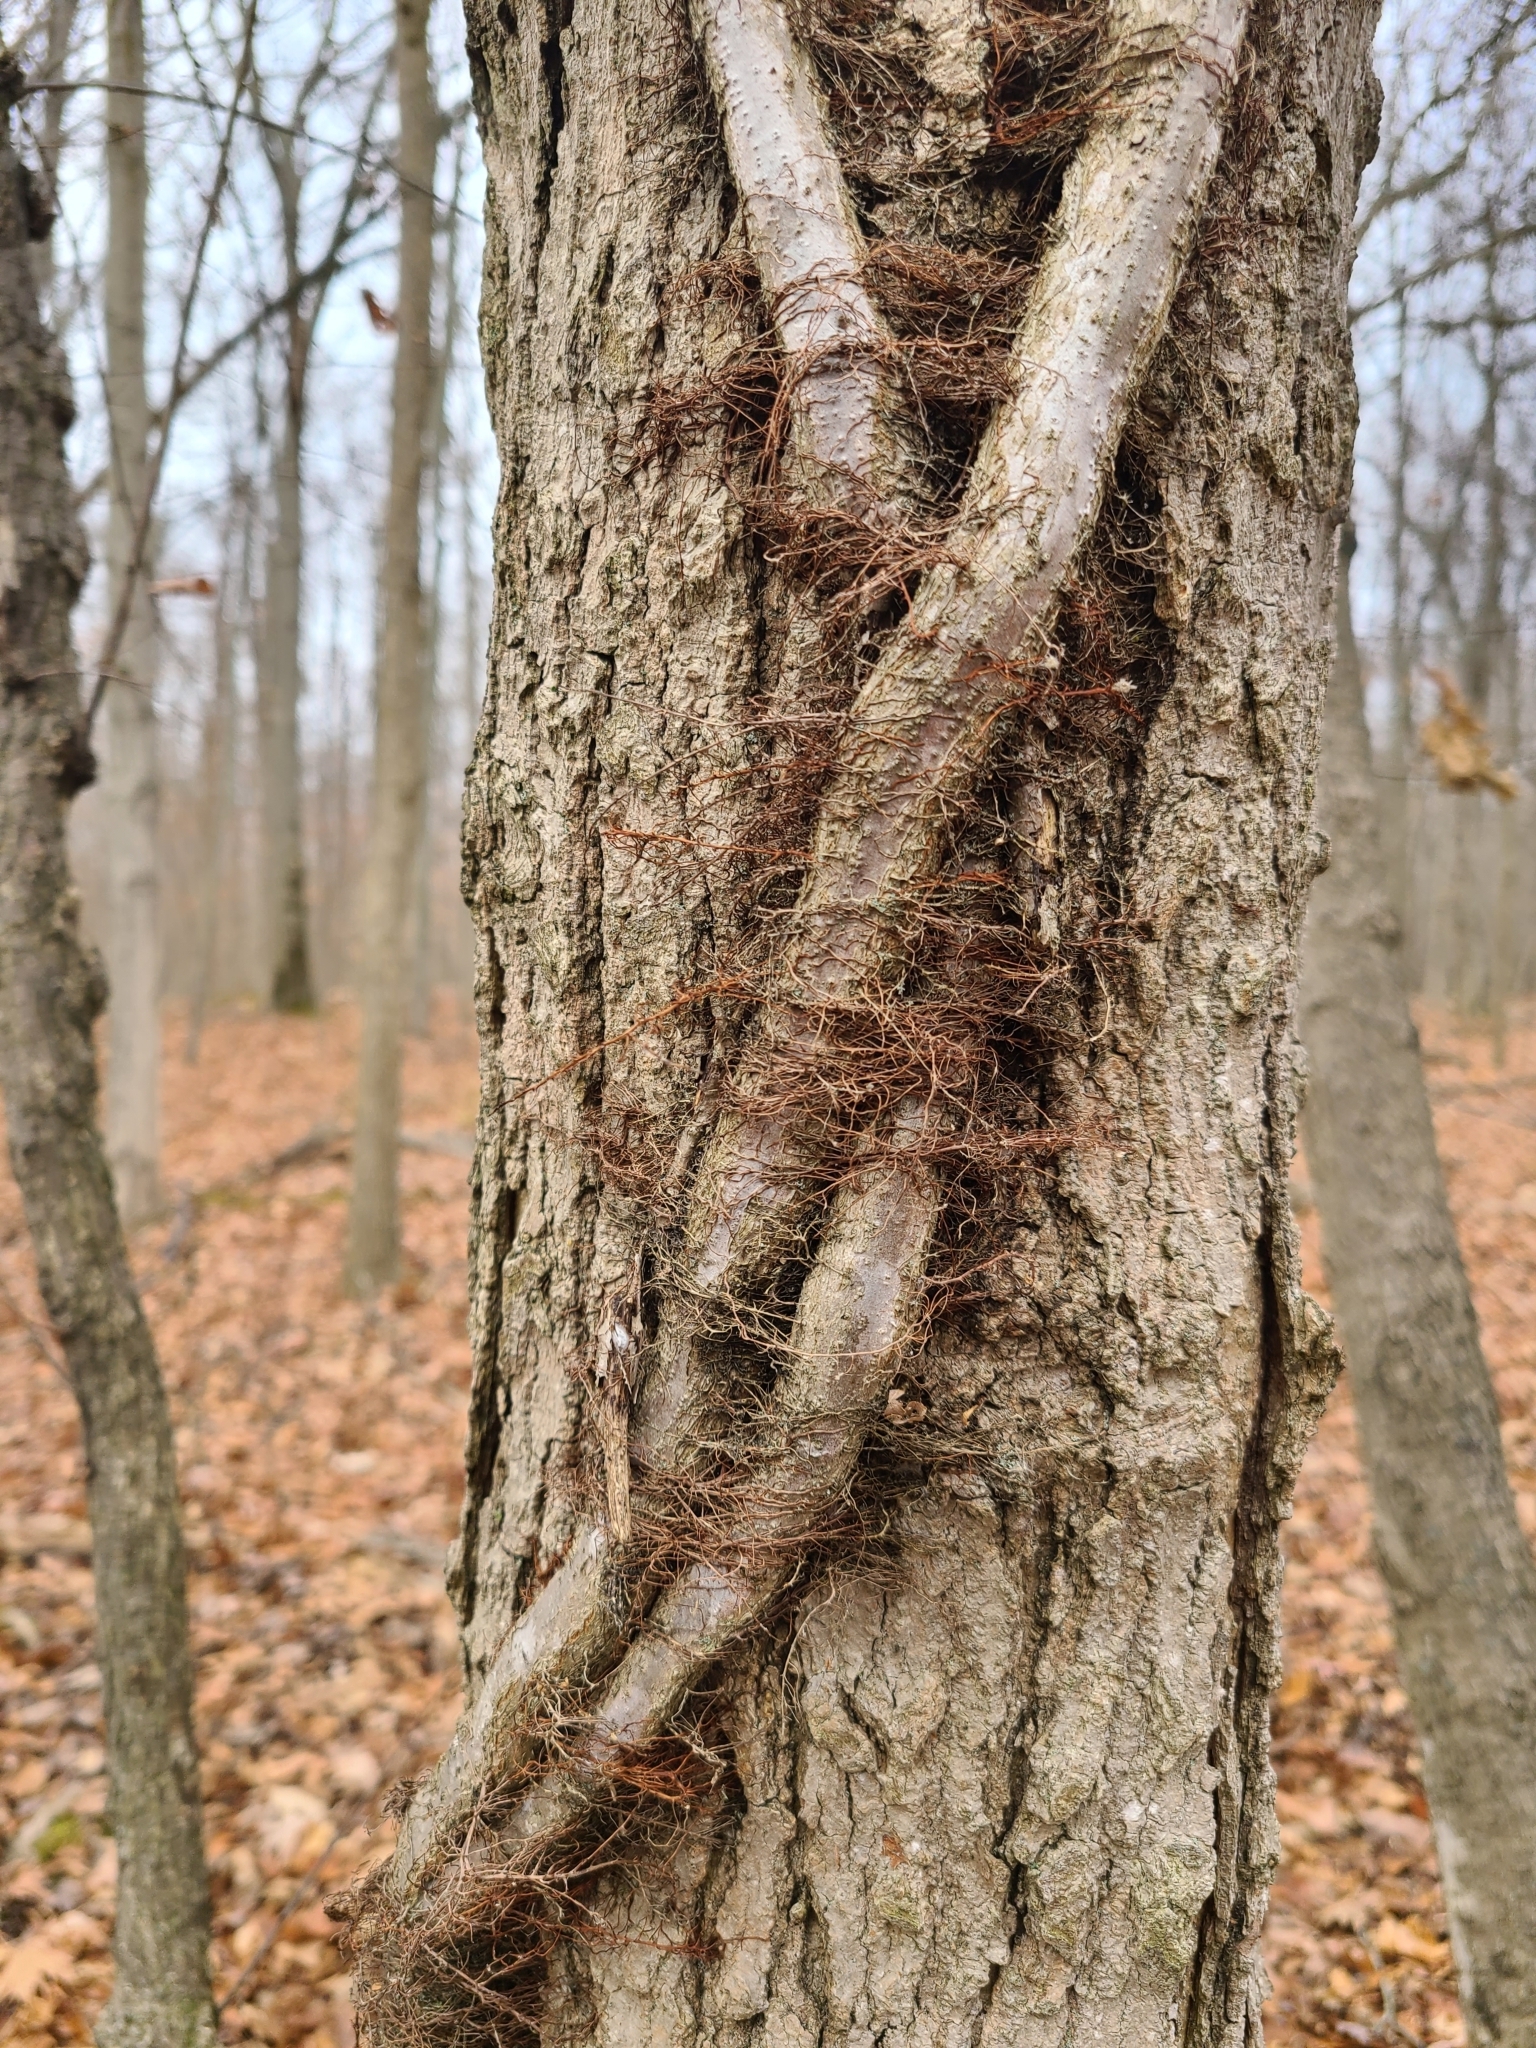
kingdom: Plantae
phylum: Tracheophyta
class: Magnoliopsida
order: Sapindales
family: Anacardiaceae
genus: Toxicodendron
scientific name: Toxicodendron radicans
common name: Poison ivy
